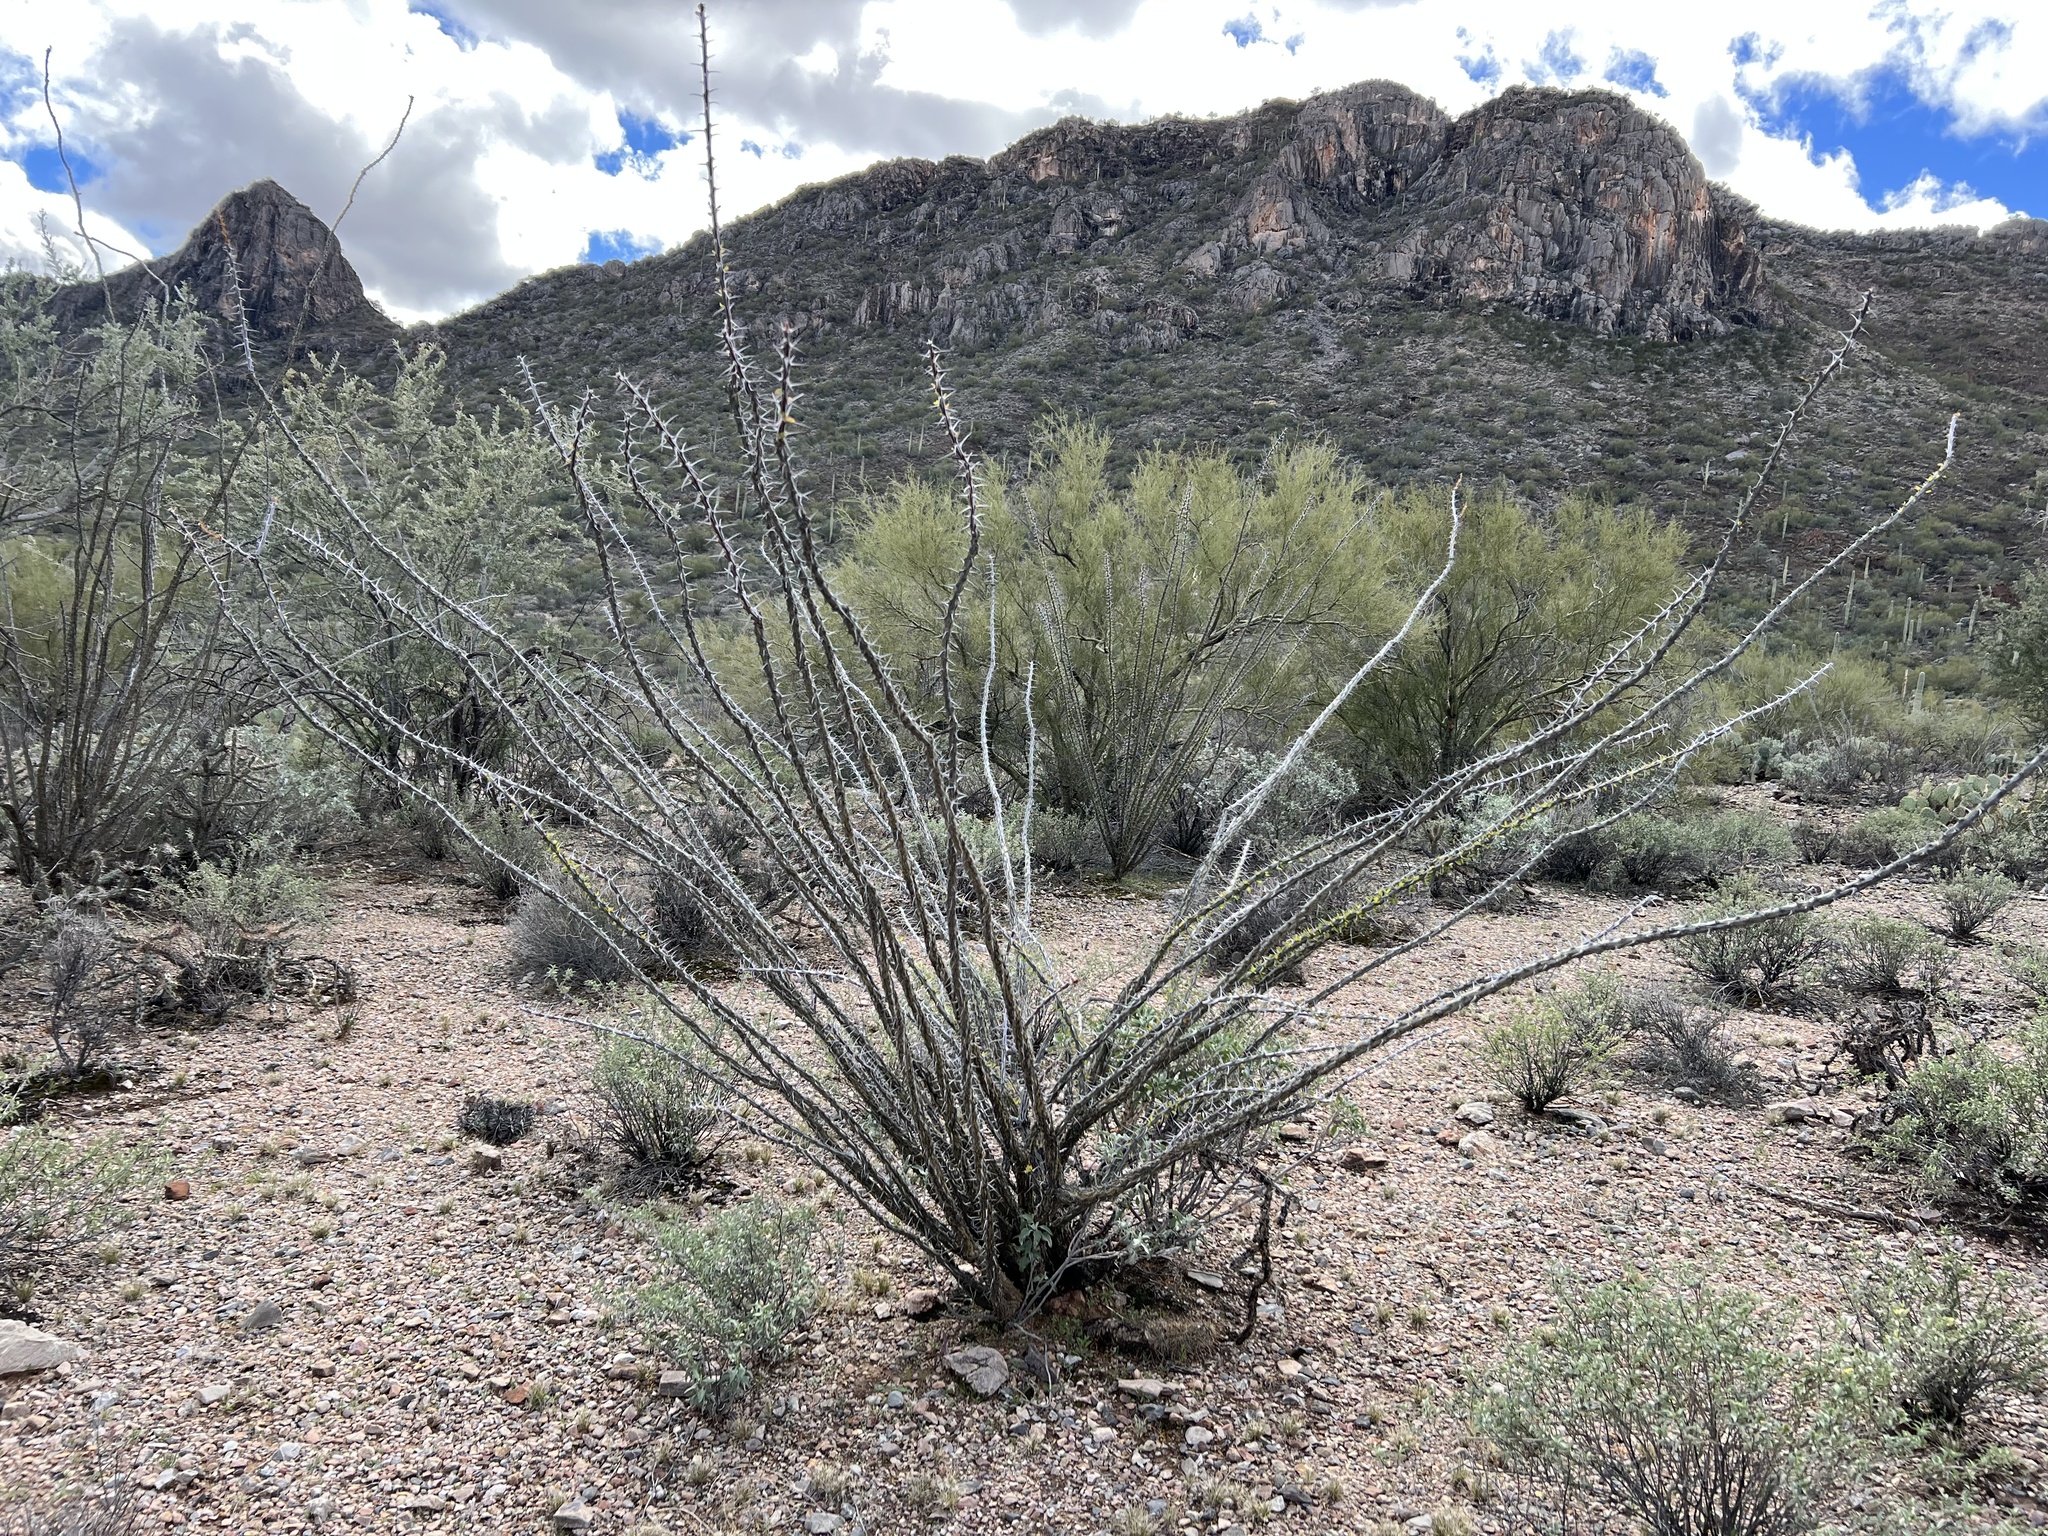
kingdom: Plantae
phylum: Tracheophyta
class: Magnoliopsida
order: Ericales
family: Fouquieriaceae
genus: Fouquieria
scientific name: Fouquieria splendens
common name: Vine-cactus
